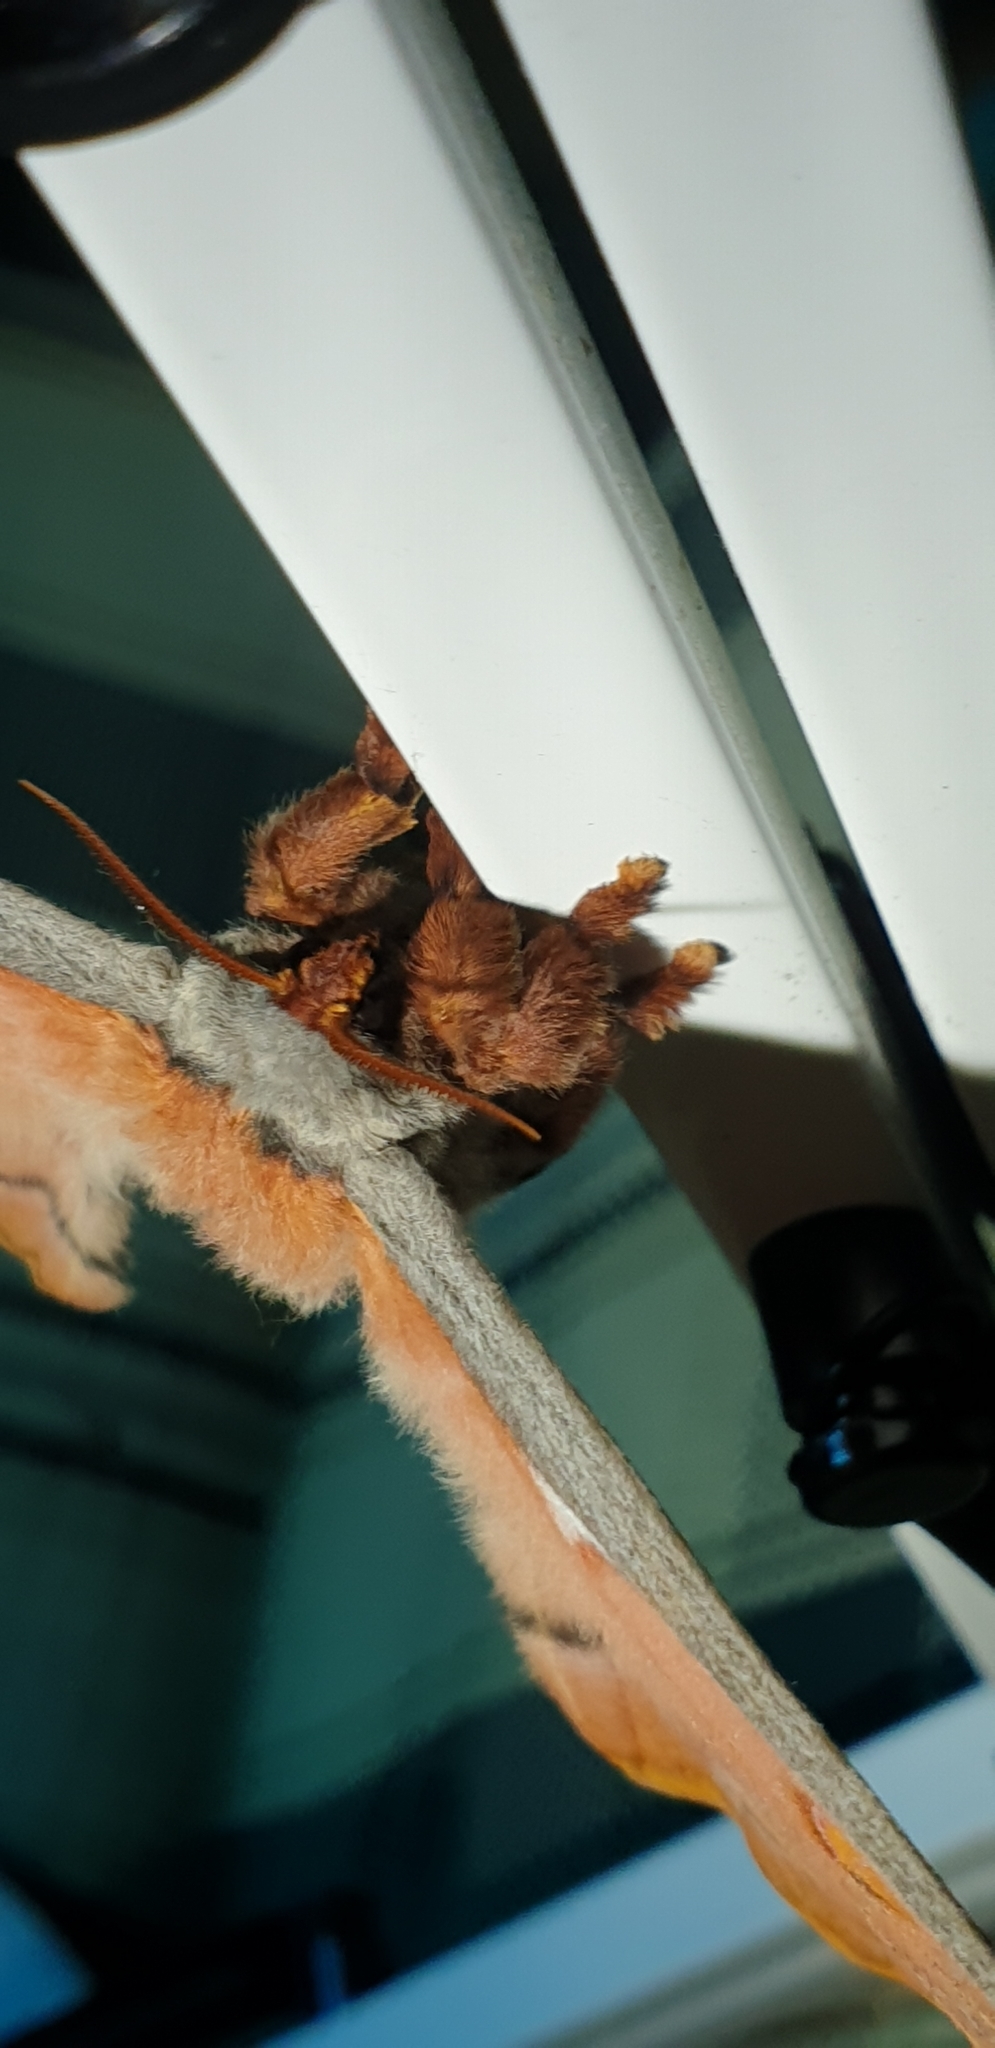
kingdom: Animalia
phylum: Arthropoda
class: Insecta
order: Lepidoptera
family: Saturniidae
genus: Opodiphthera
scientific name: Opodiphthera
